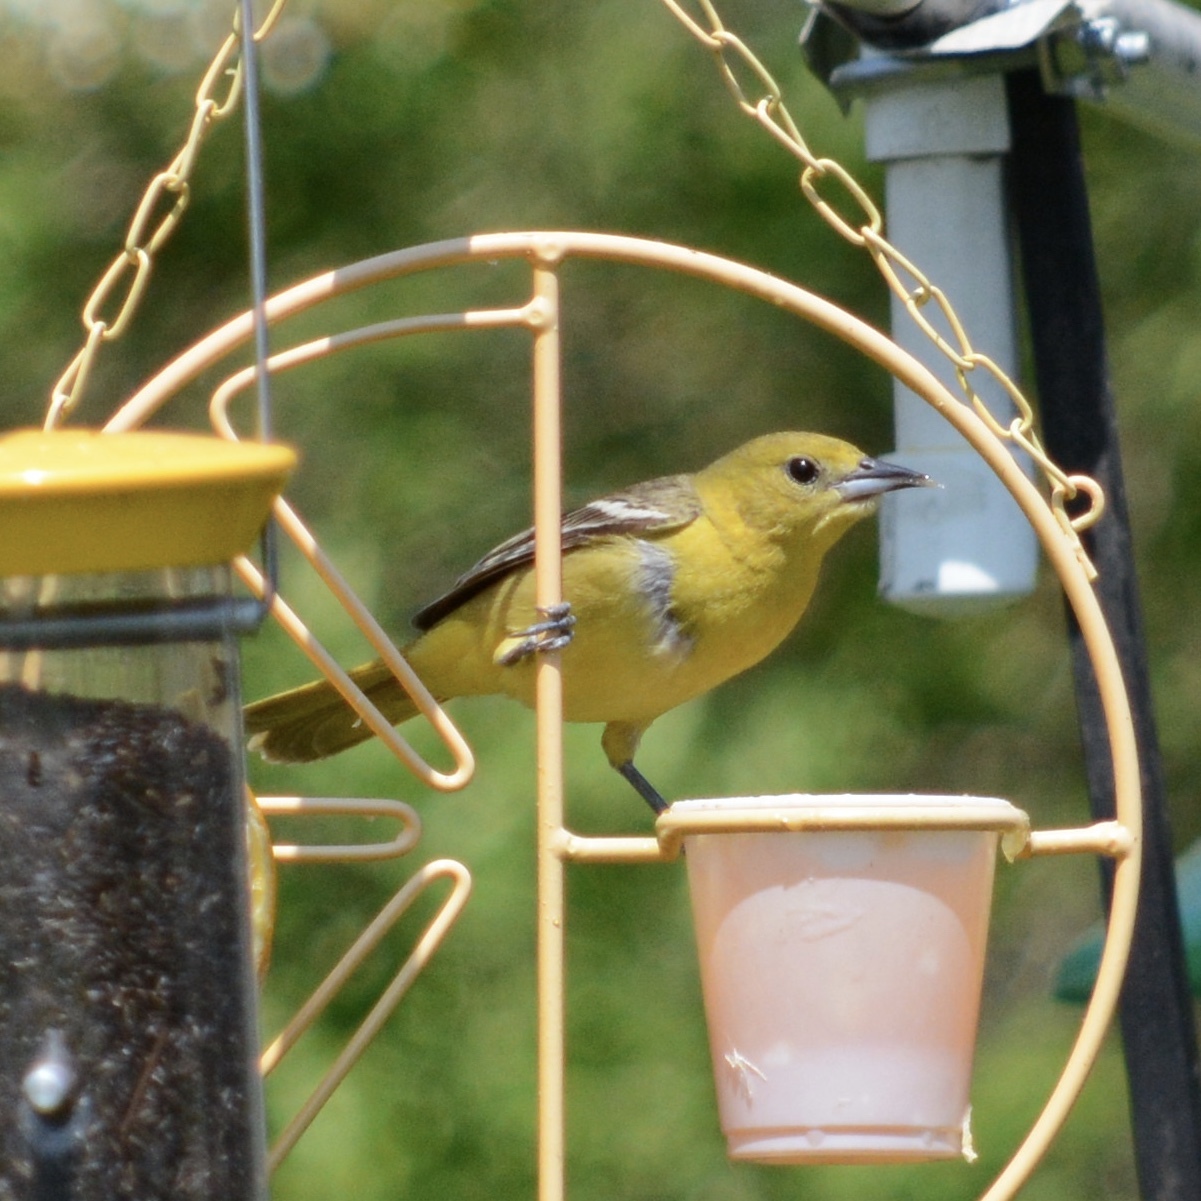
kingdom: Animalia
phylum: Chordata
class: Aves
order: Passeriformes
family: Icteridae
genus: Icterus
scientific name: Icterus spurius
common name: Orchard oriole
